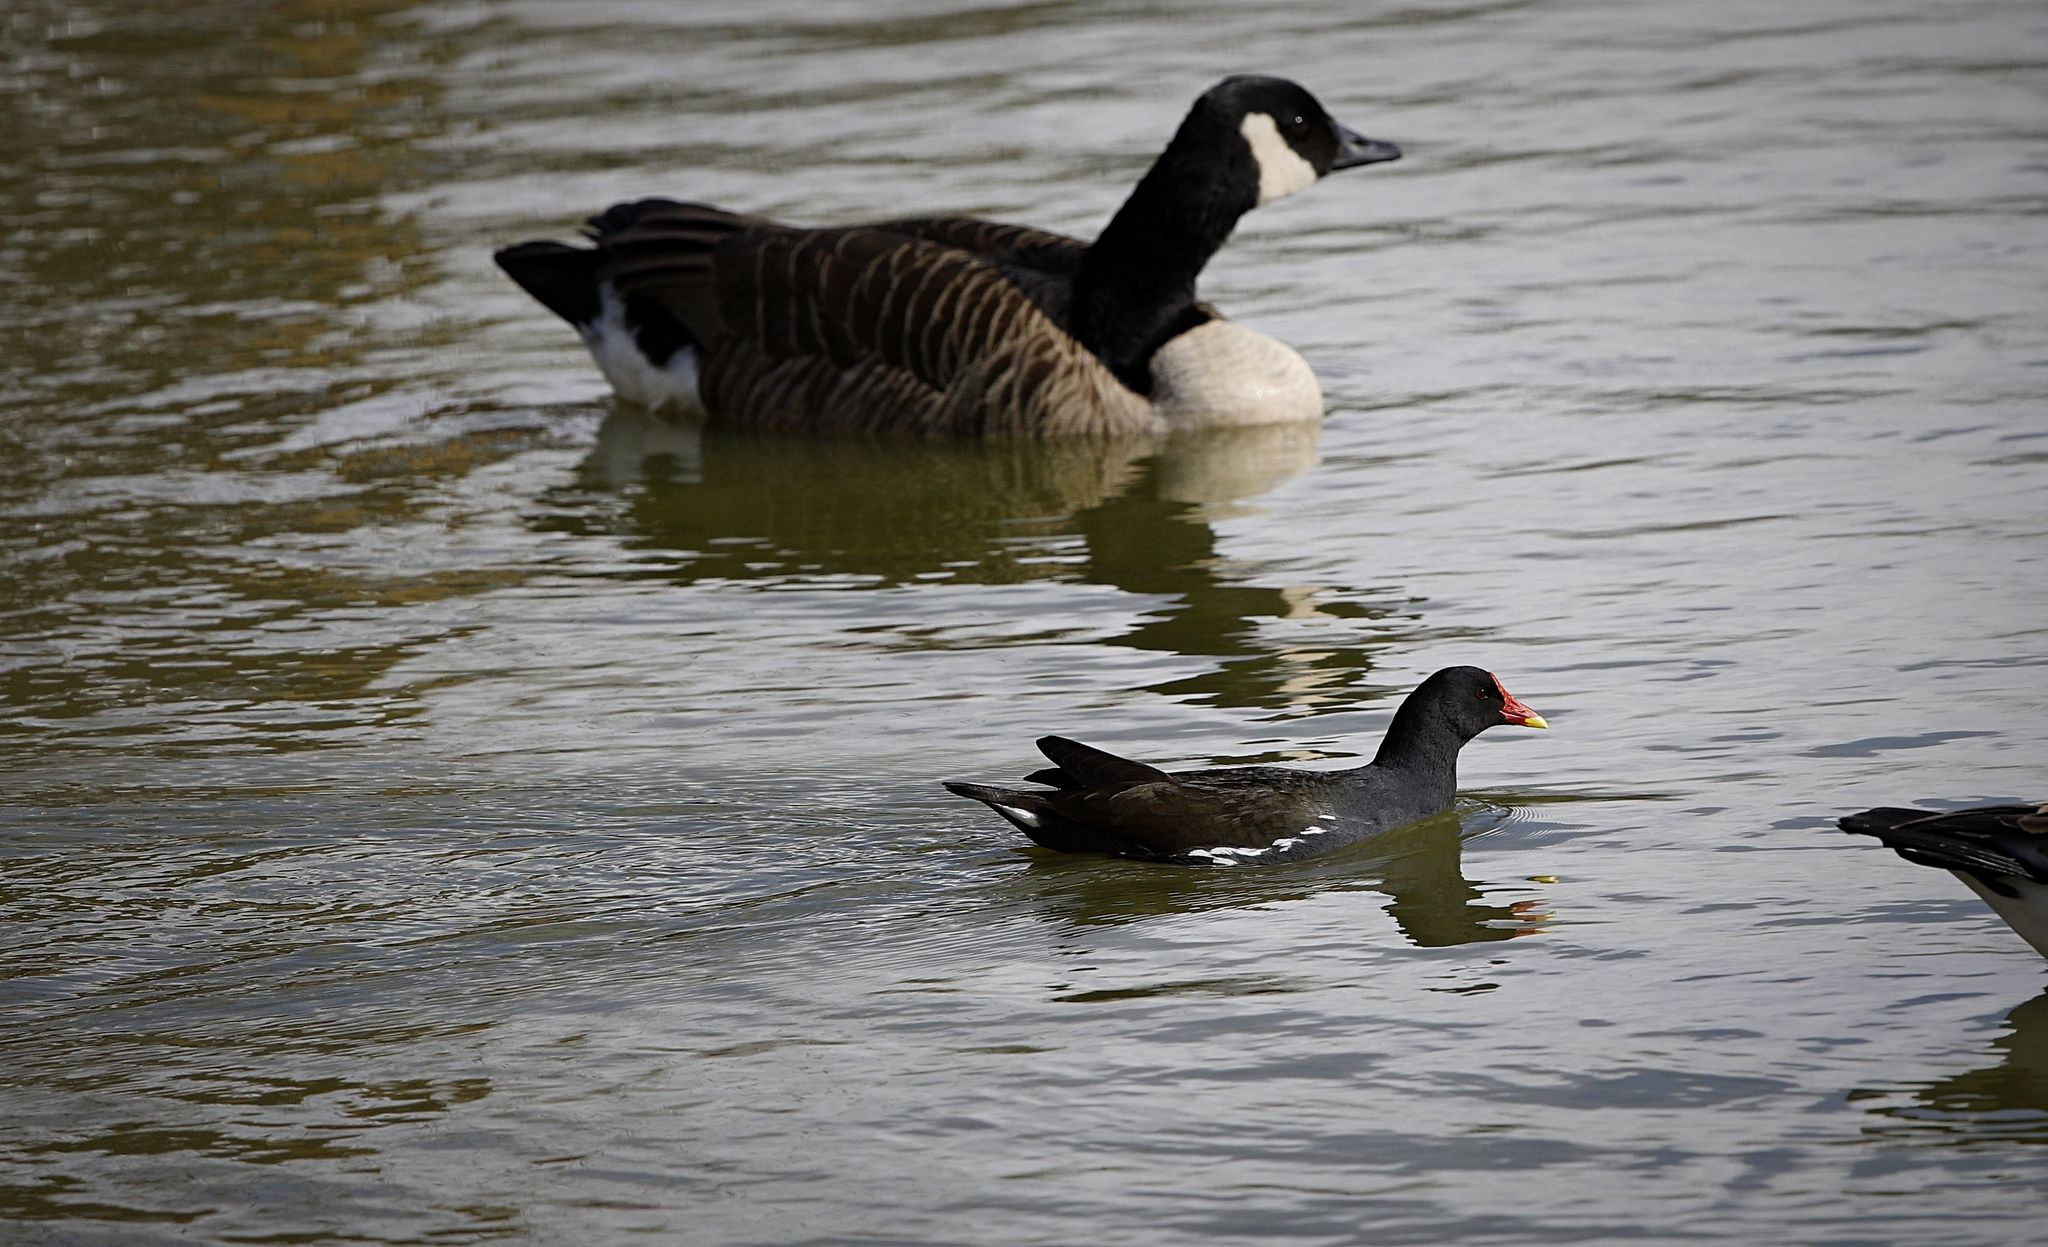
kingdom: Animalia
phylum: Chordata
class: Aves
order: Gruiformes
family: Rallidae
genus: Gallinula
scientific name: Gallinula chloropus
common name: Common moorhen
